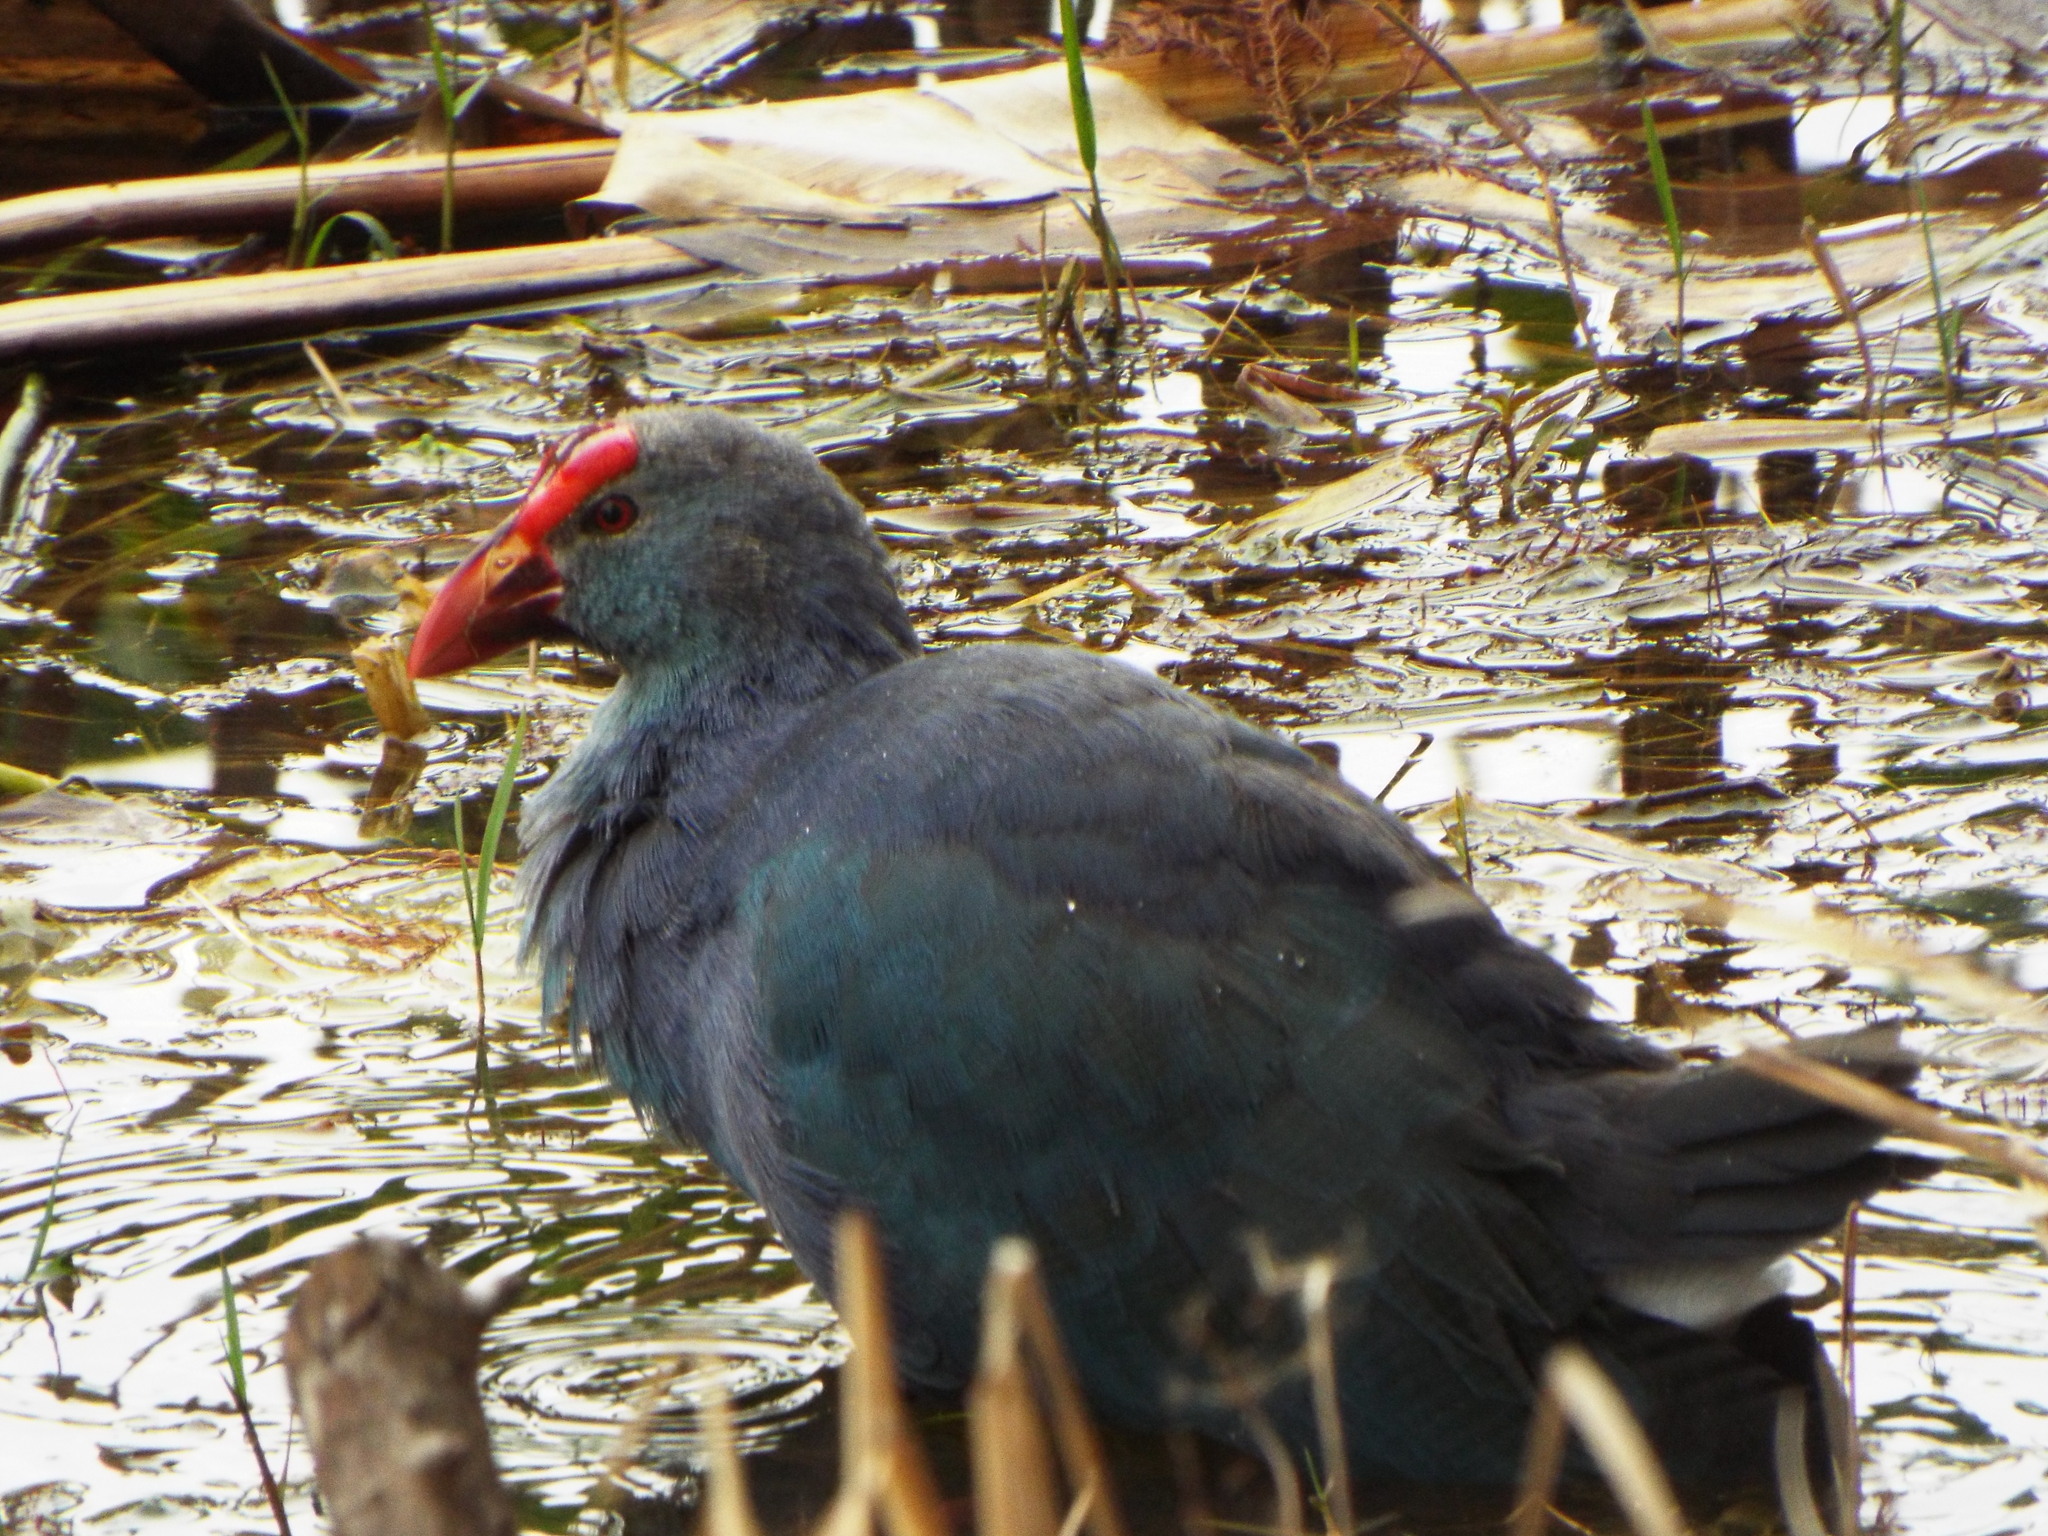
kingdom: Animalia
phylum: Chordata
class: Aves
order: Gruiformes
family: Rallidae
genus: Porphyrio
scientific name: Porphyrio porphyrio
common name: Purple swamphen
